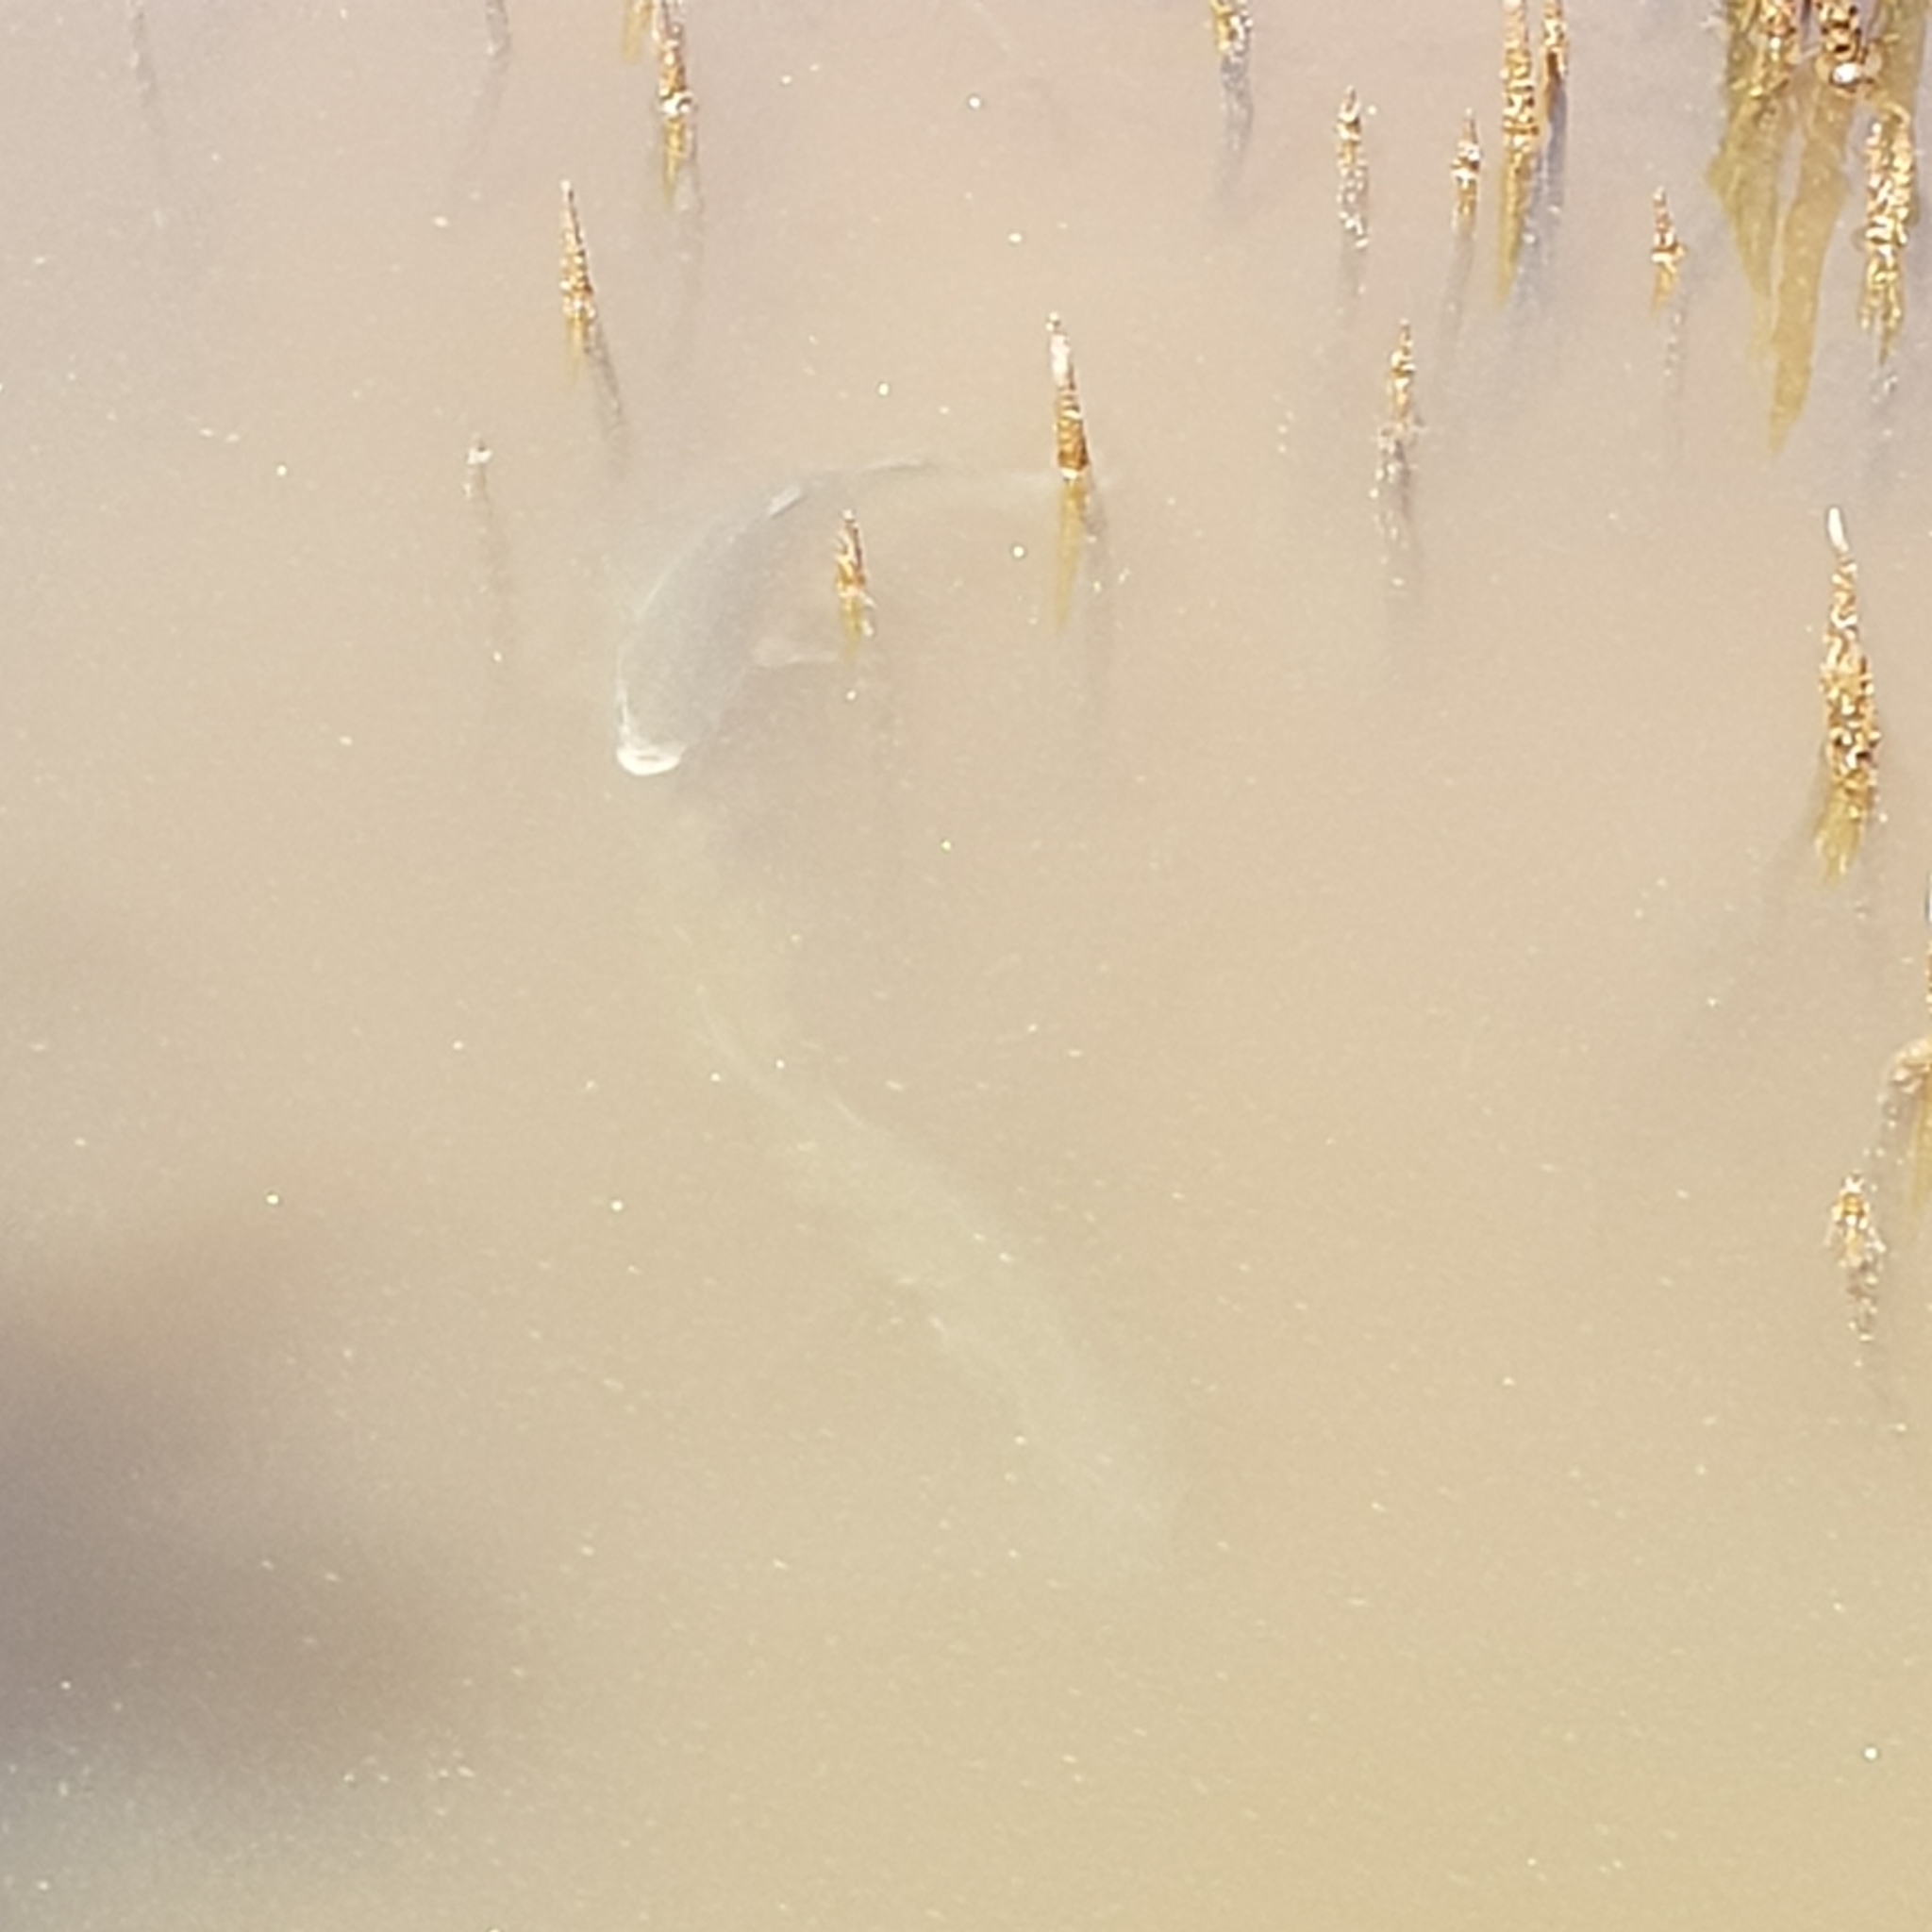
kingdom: Animalia
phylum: Chordata
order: Mugiliformes
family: Mugilidae
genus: Mugil
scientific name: Mugil cephalus
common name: Grey mullet
